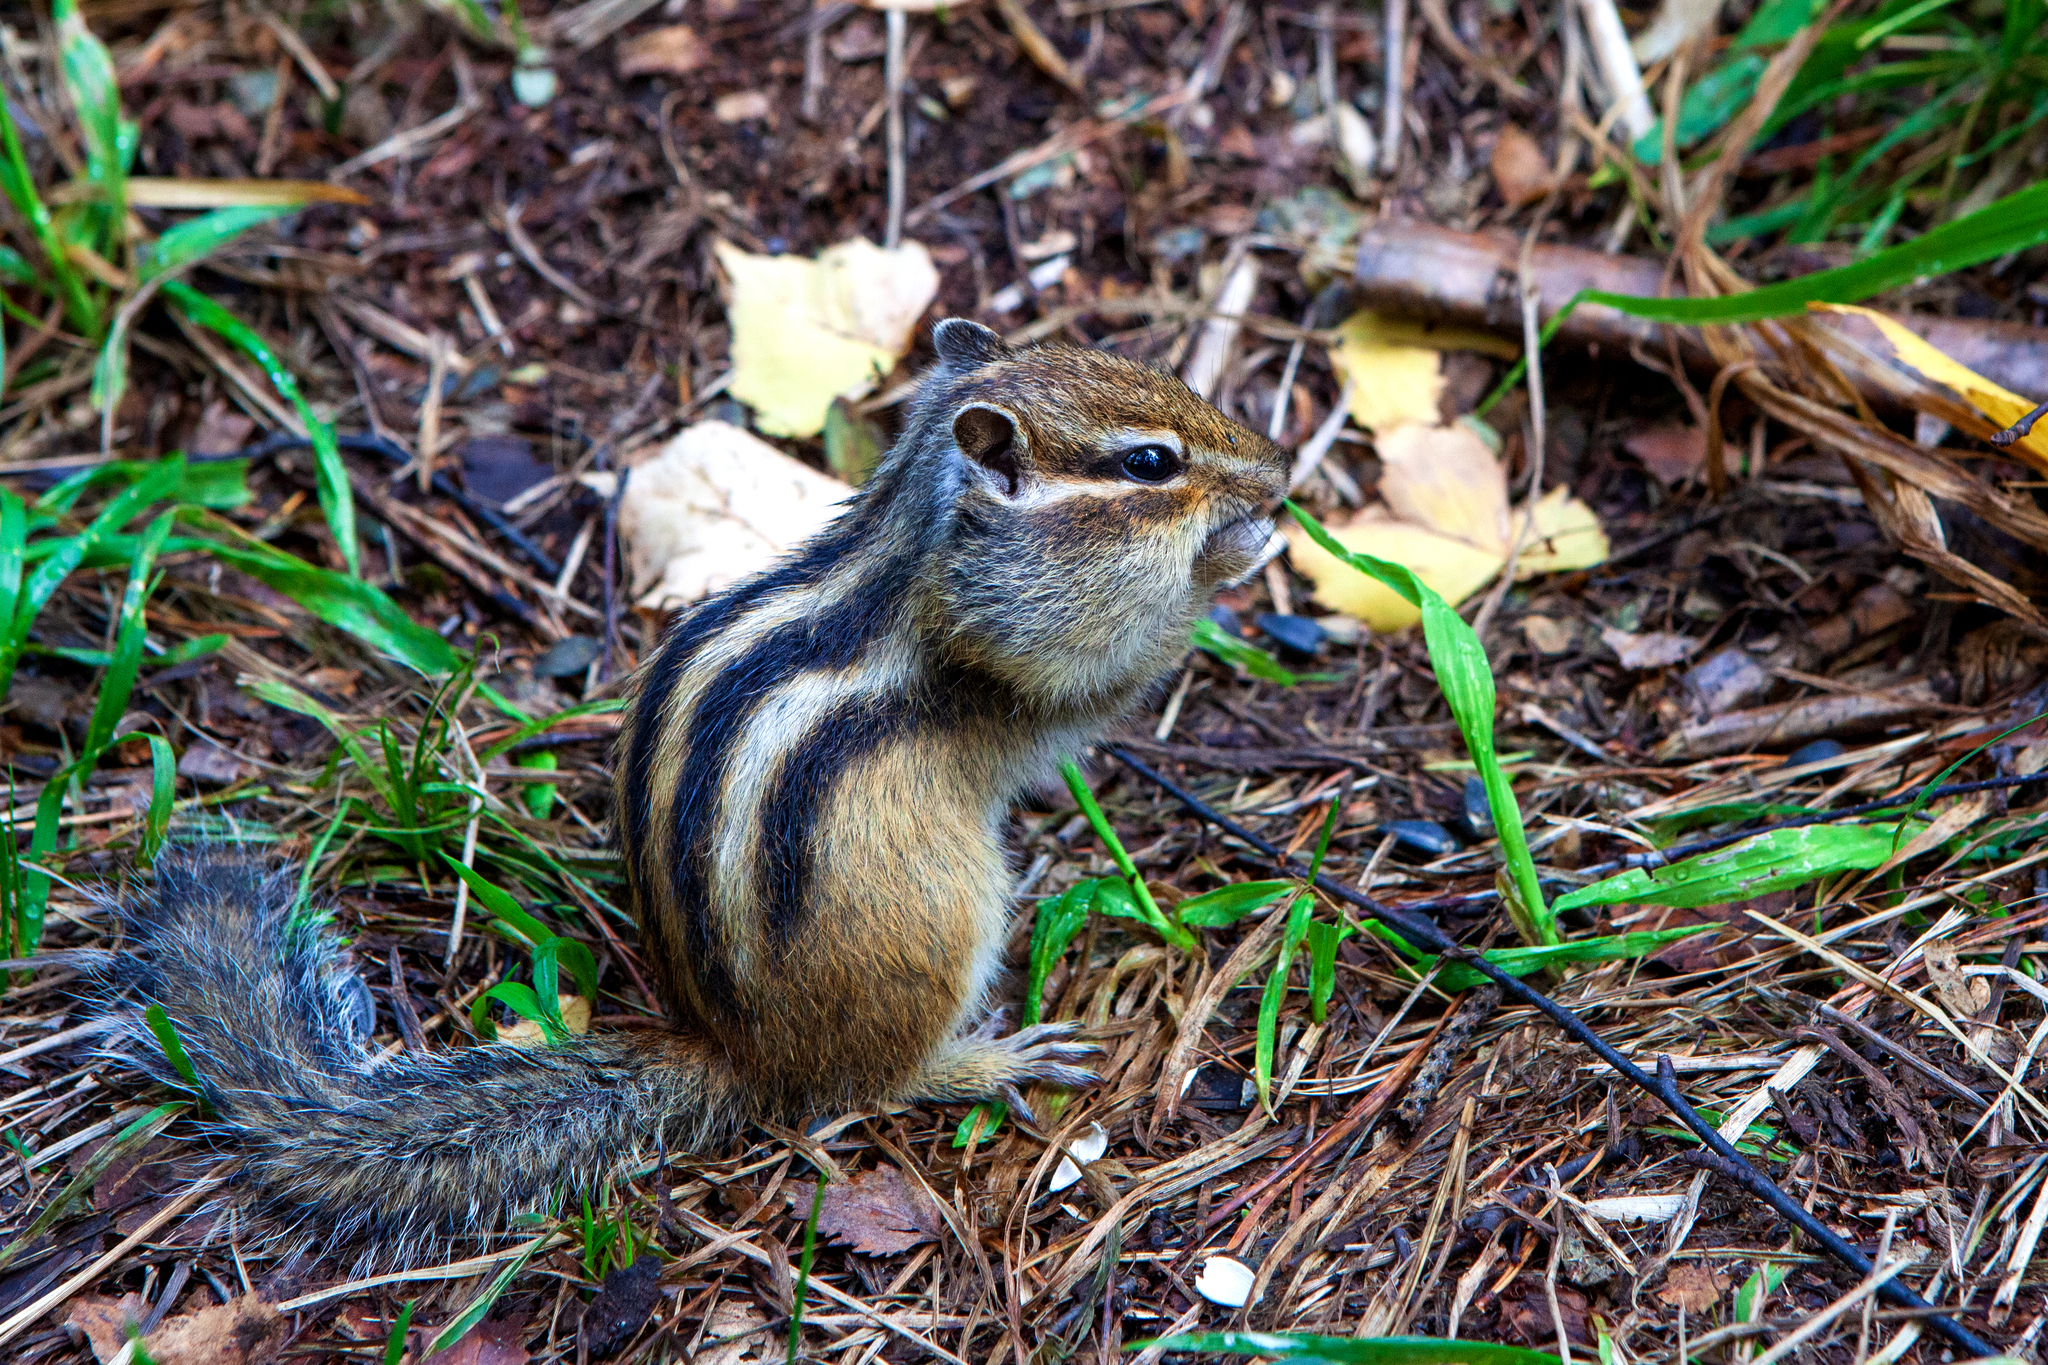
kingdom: Animalia
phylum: Chordata
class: Mammalia
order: Rodentia
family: Sciuridae
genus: Tamias
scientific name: Tamias sibiricus
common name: Siberian chipmunk
